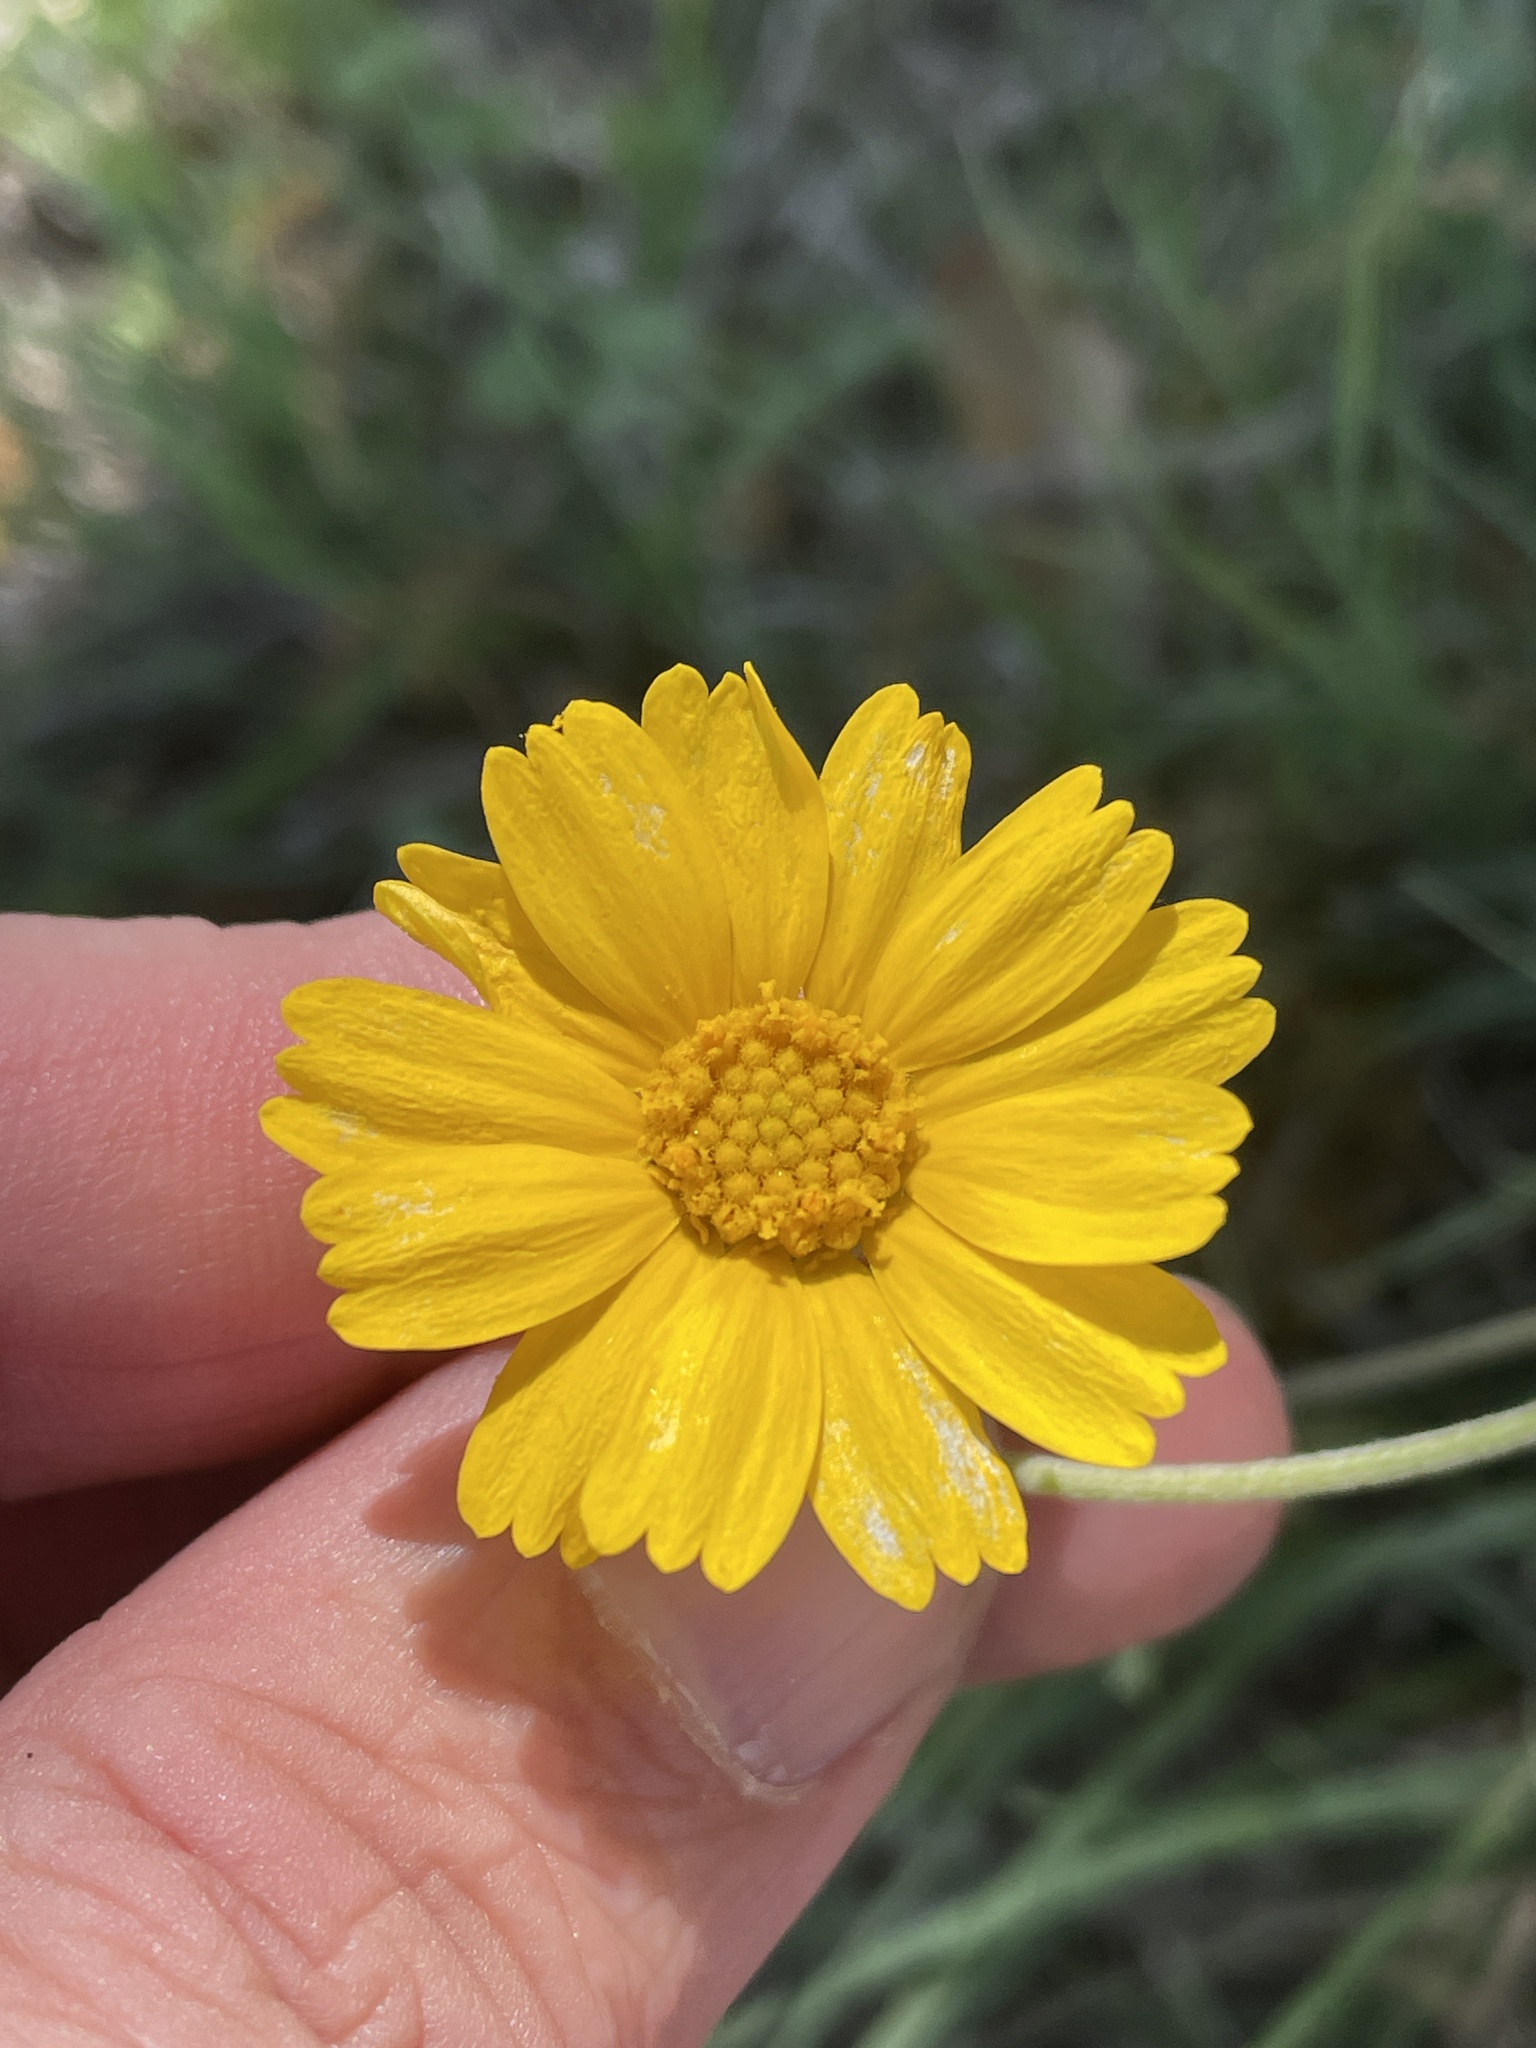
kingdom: Plantae
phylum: Tracheophyta
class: Magnoliopsida
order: Asterales
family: Asteraceae
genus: Tetraneuris
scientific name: Tetraneuris scaposa
